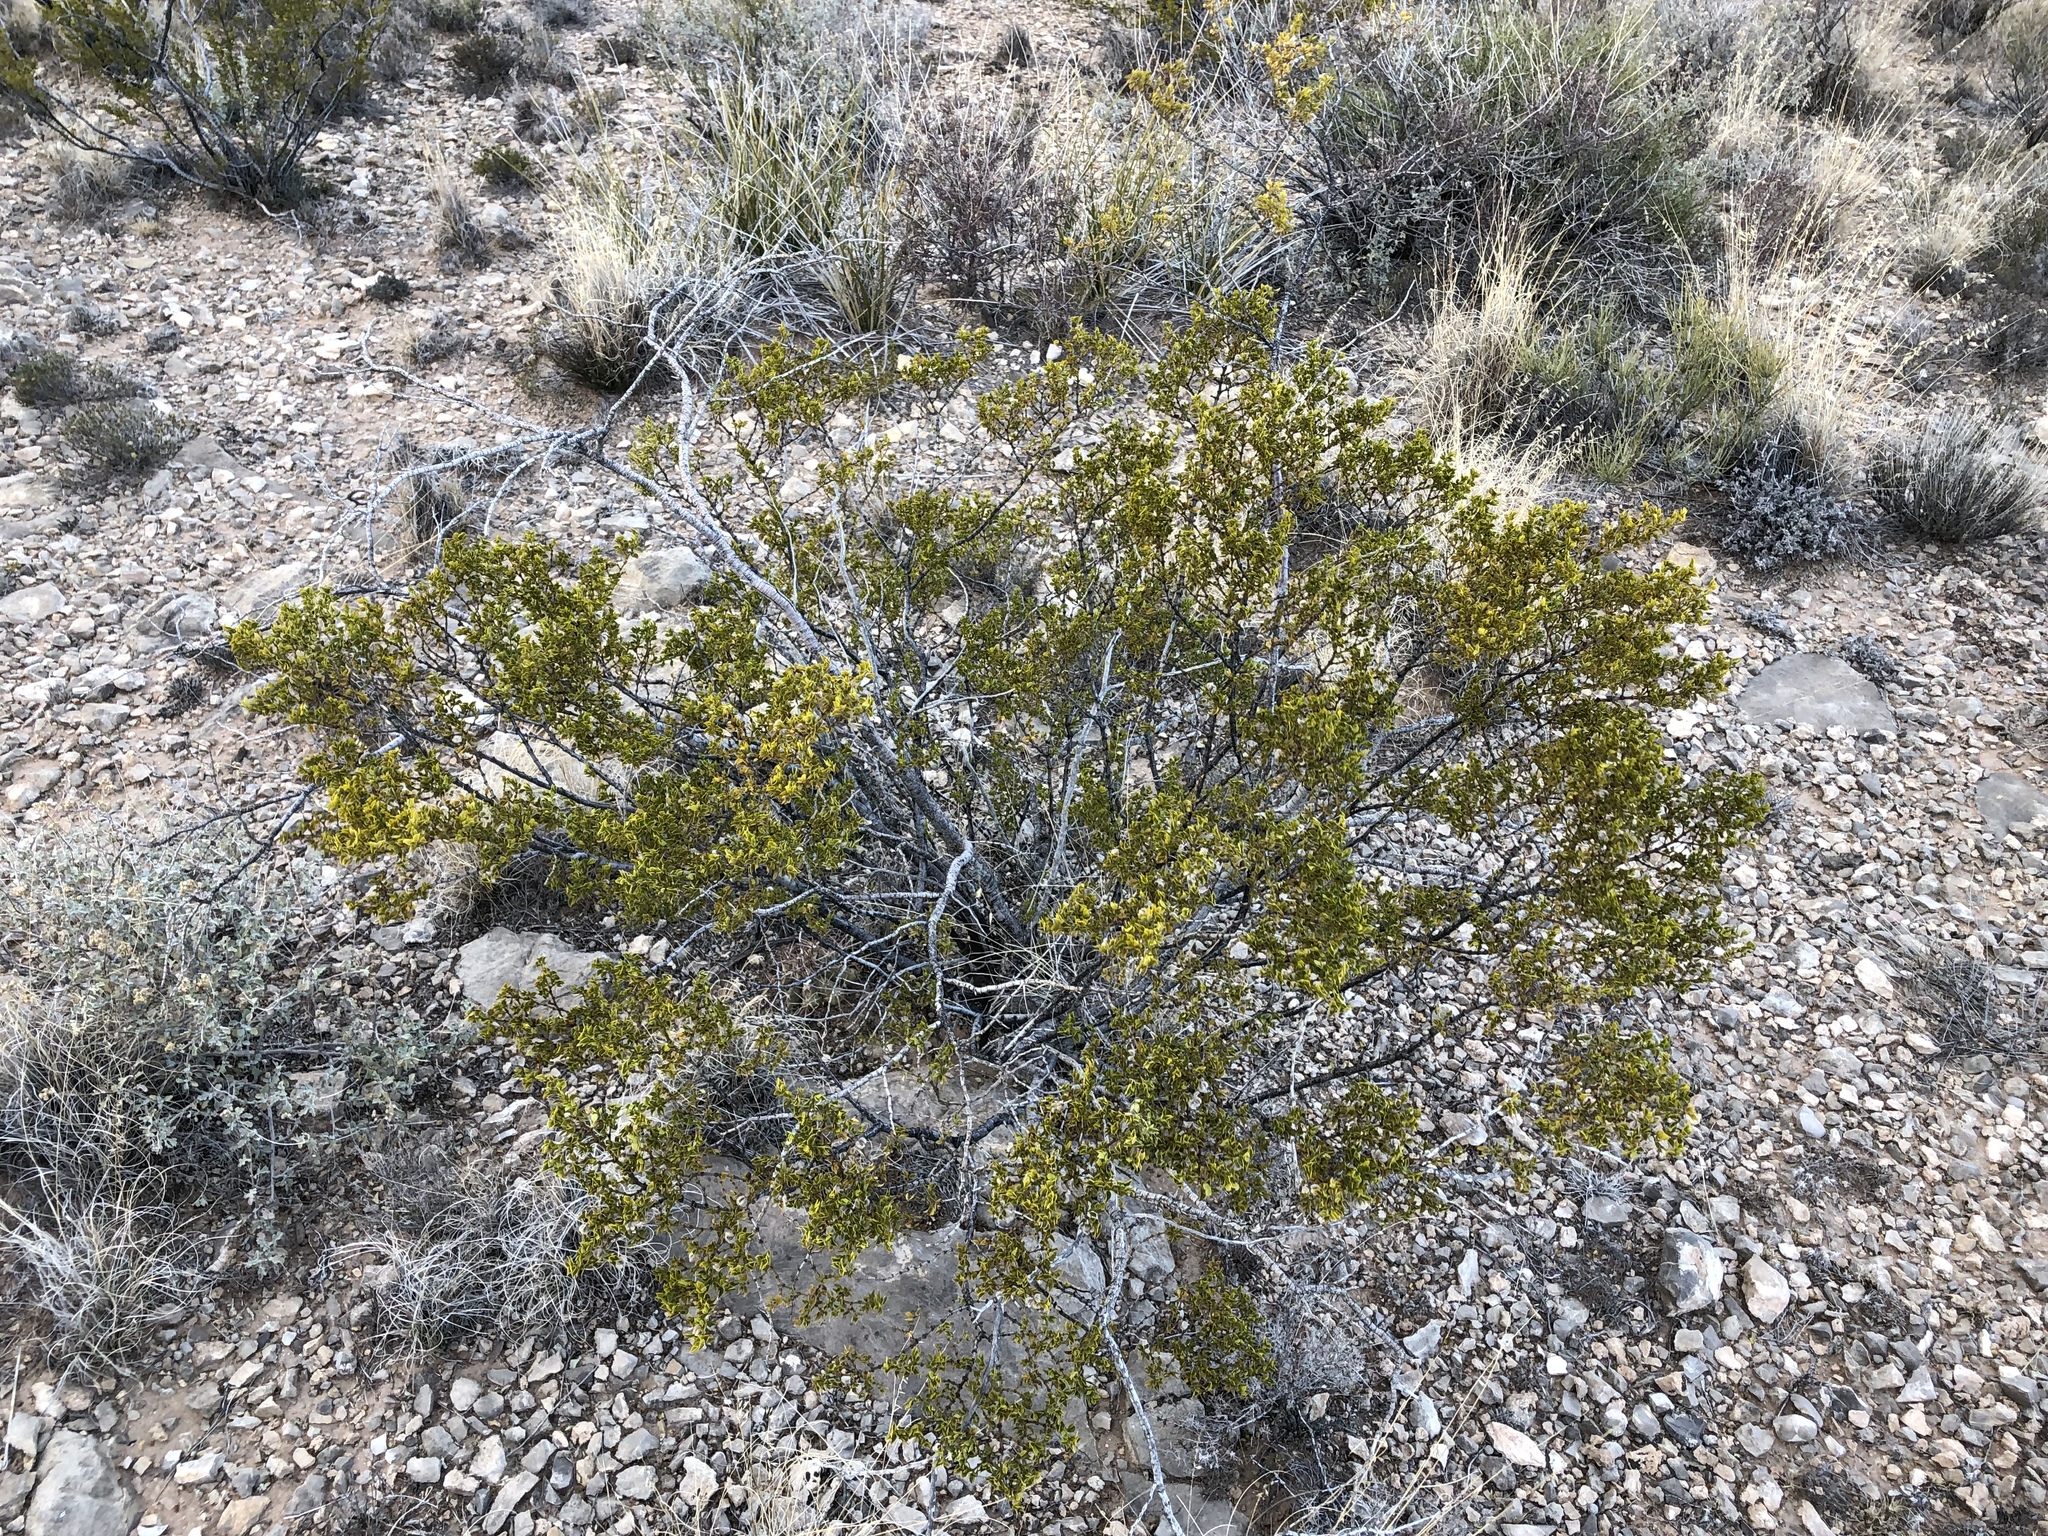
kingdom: Plantae
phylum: Tracheophyta
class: Magnoliopsida
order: Zygophyllales
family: Zygophyllaceae
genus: Larrea
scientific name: Larrea tridentata
